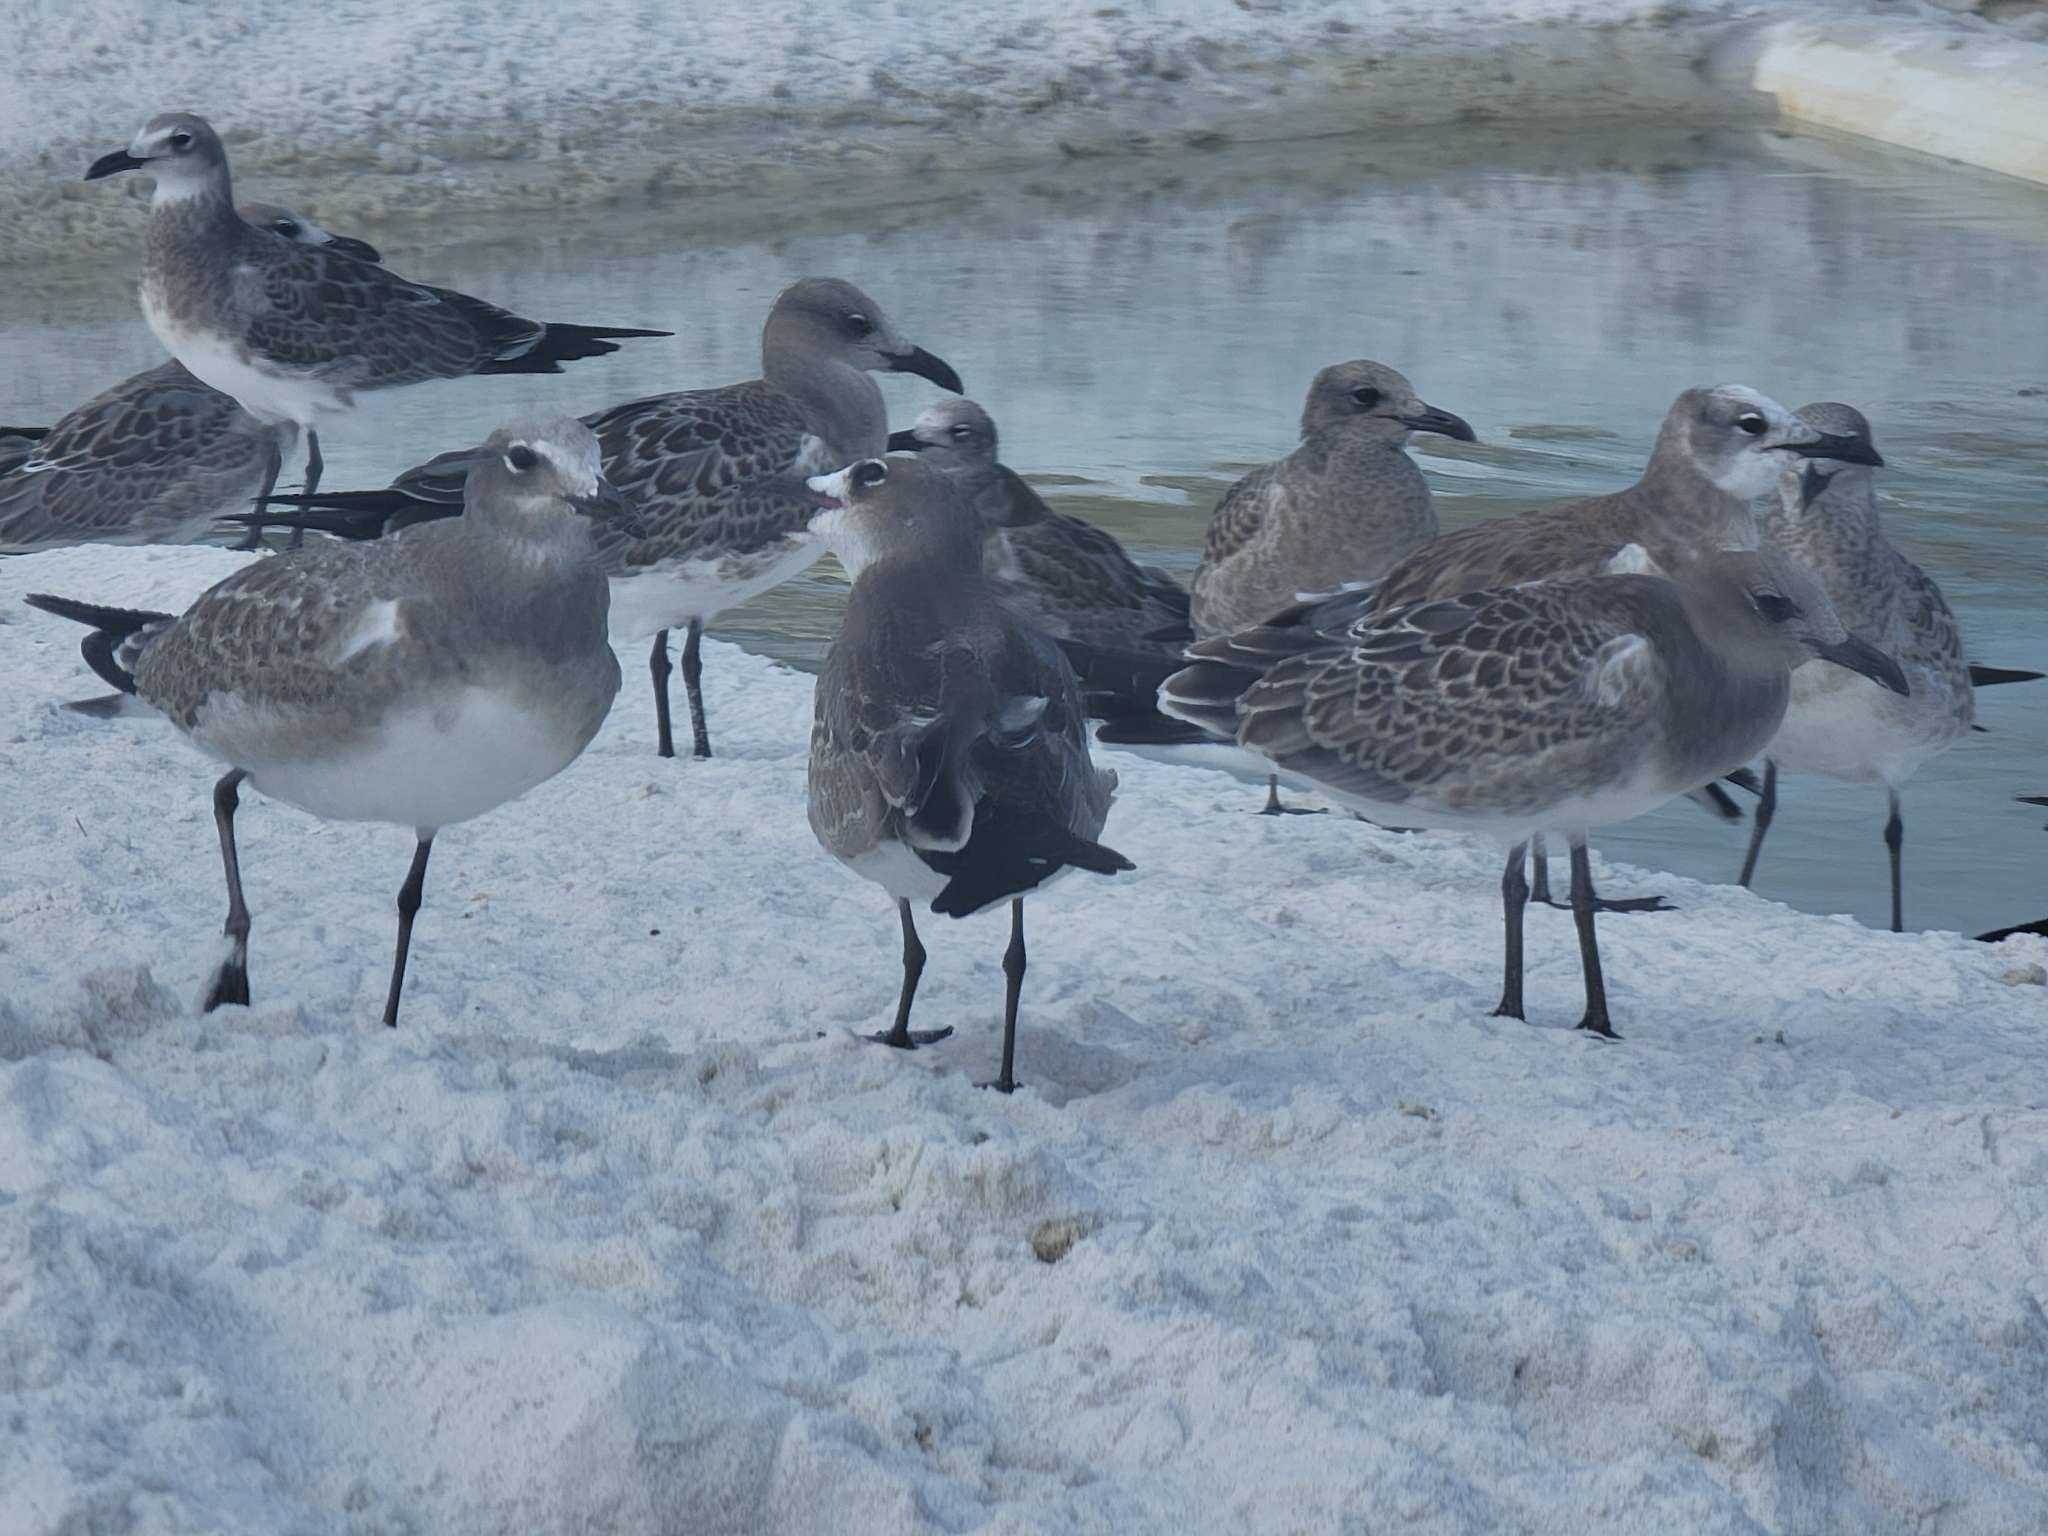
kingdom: Animalia
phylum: Chordata
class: Aves
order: Charadriiformes
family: Laridae
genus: Leucophaeus
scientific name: Leucophaeus atricilla
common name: Laughing gull
